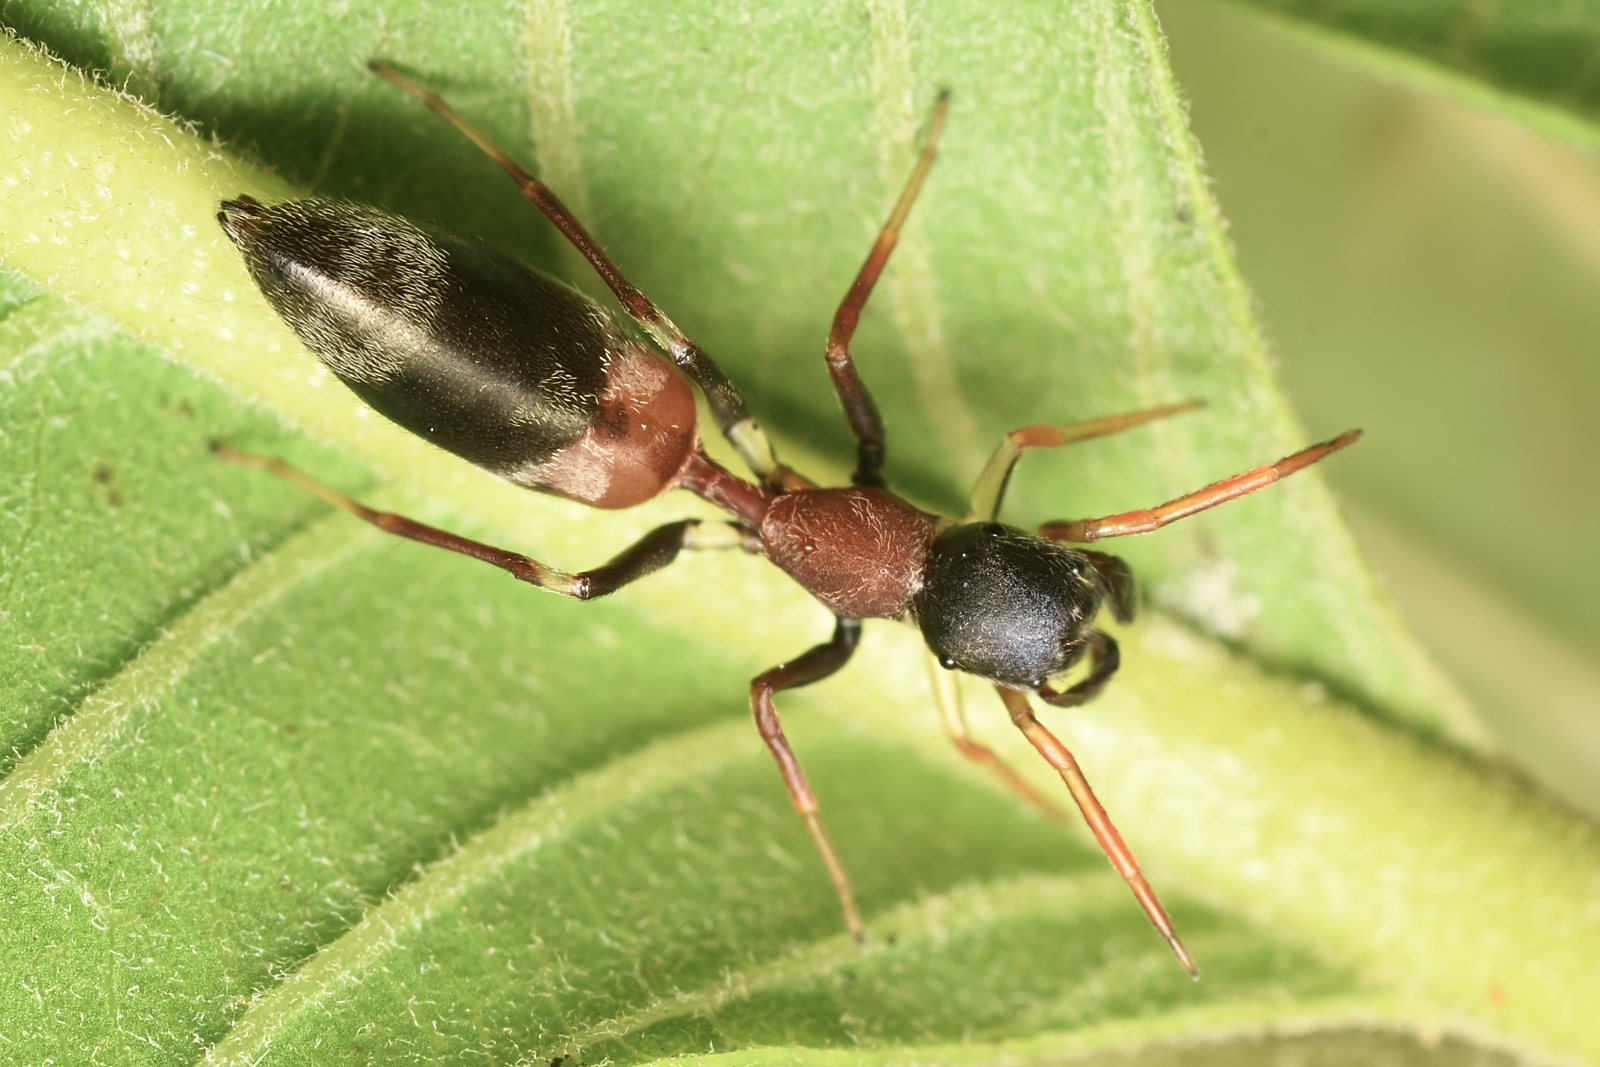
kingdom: Animalia
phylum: Arthropoda
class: Arachnida
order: Araneae
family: Salticidae
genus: Myrmarachne
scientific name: Myrmarachne melanocephala
